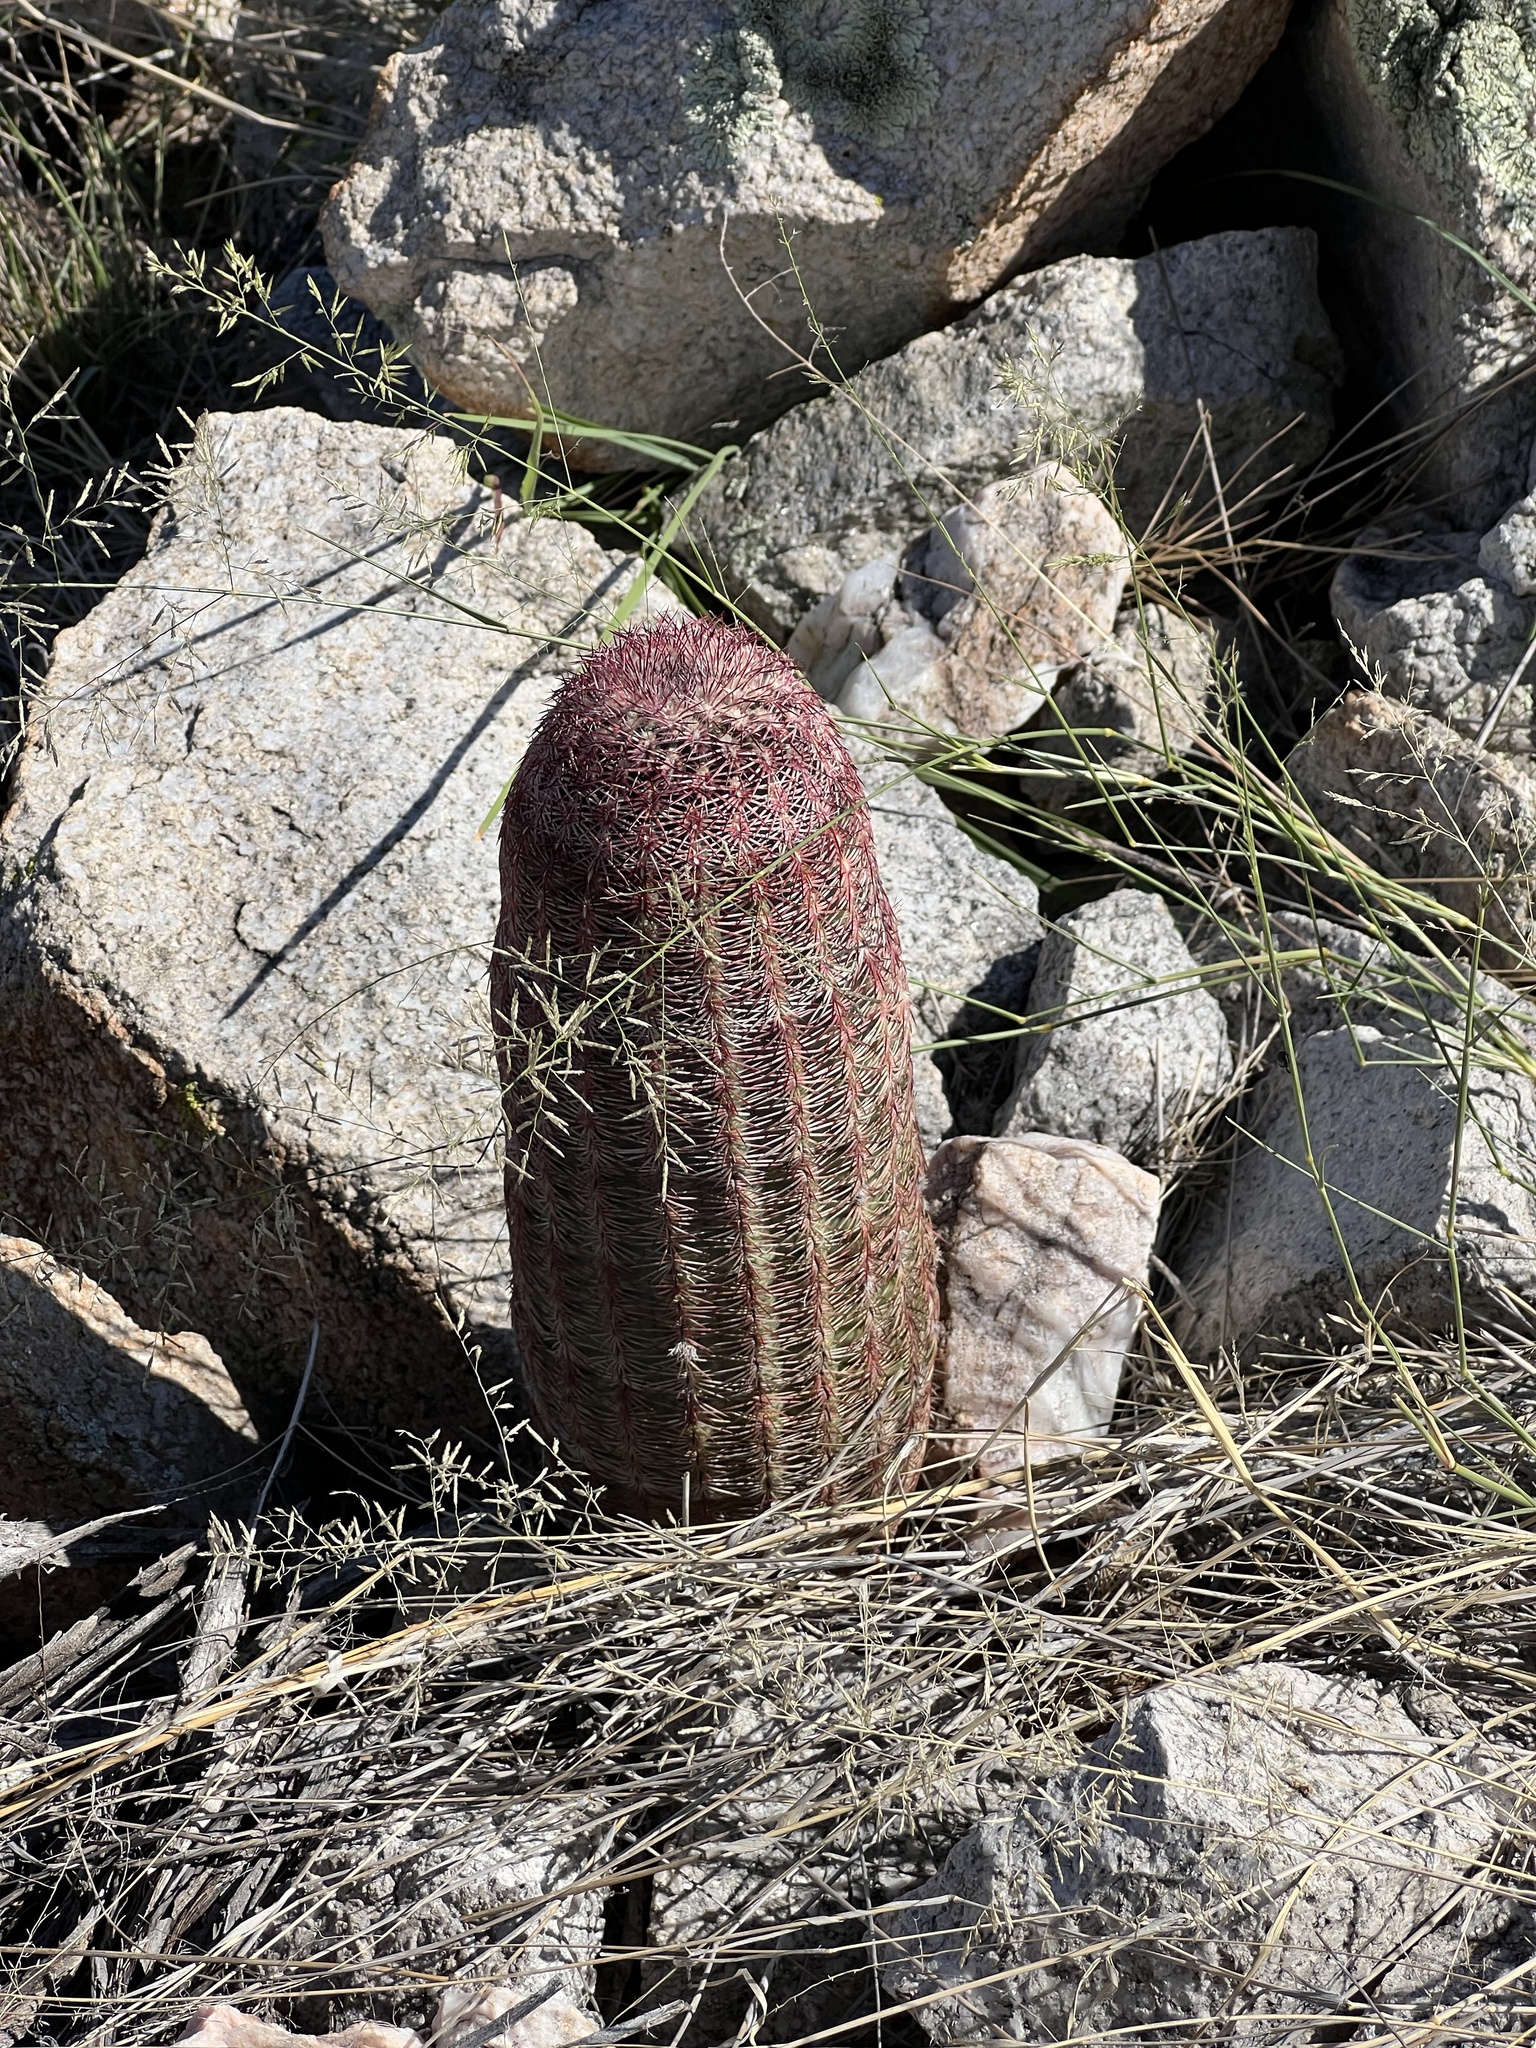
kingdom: Plantae
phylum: Tracheophyta
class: Magnoliopsida
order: Caryophyllales
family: Cactaceae
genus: Echinocereus
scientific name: Echinocereus rigidissimus
